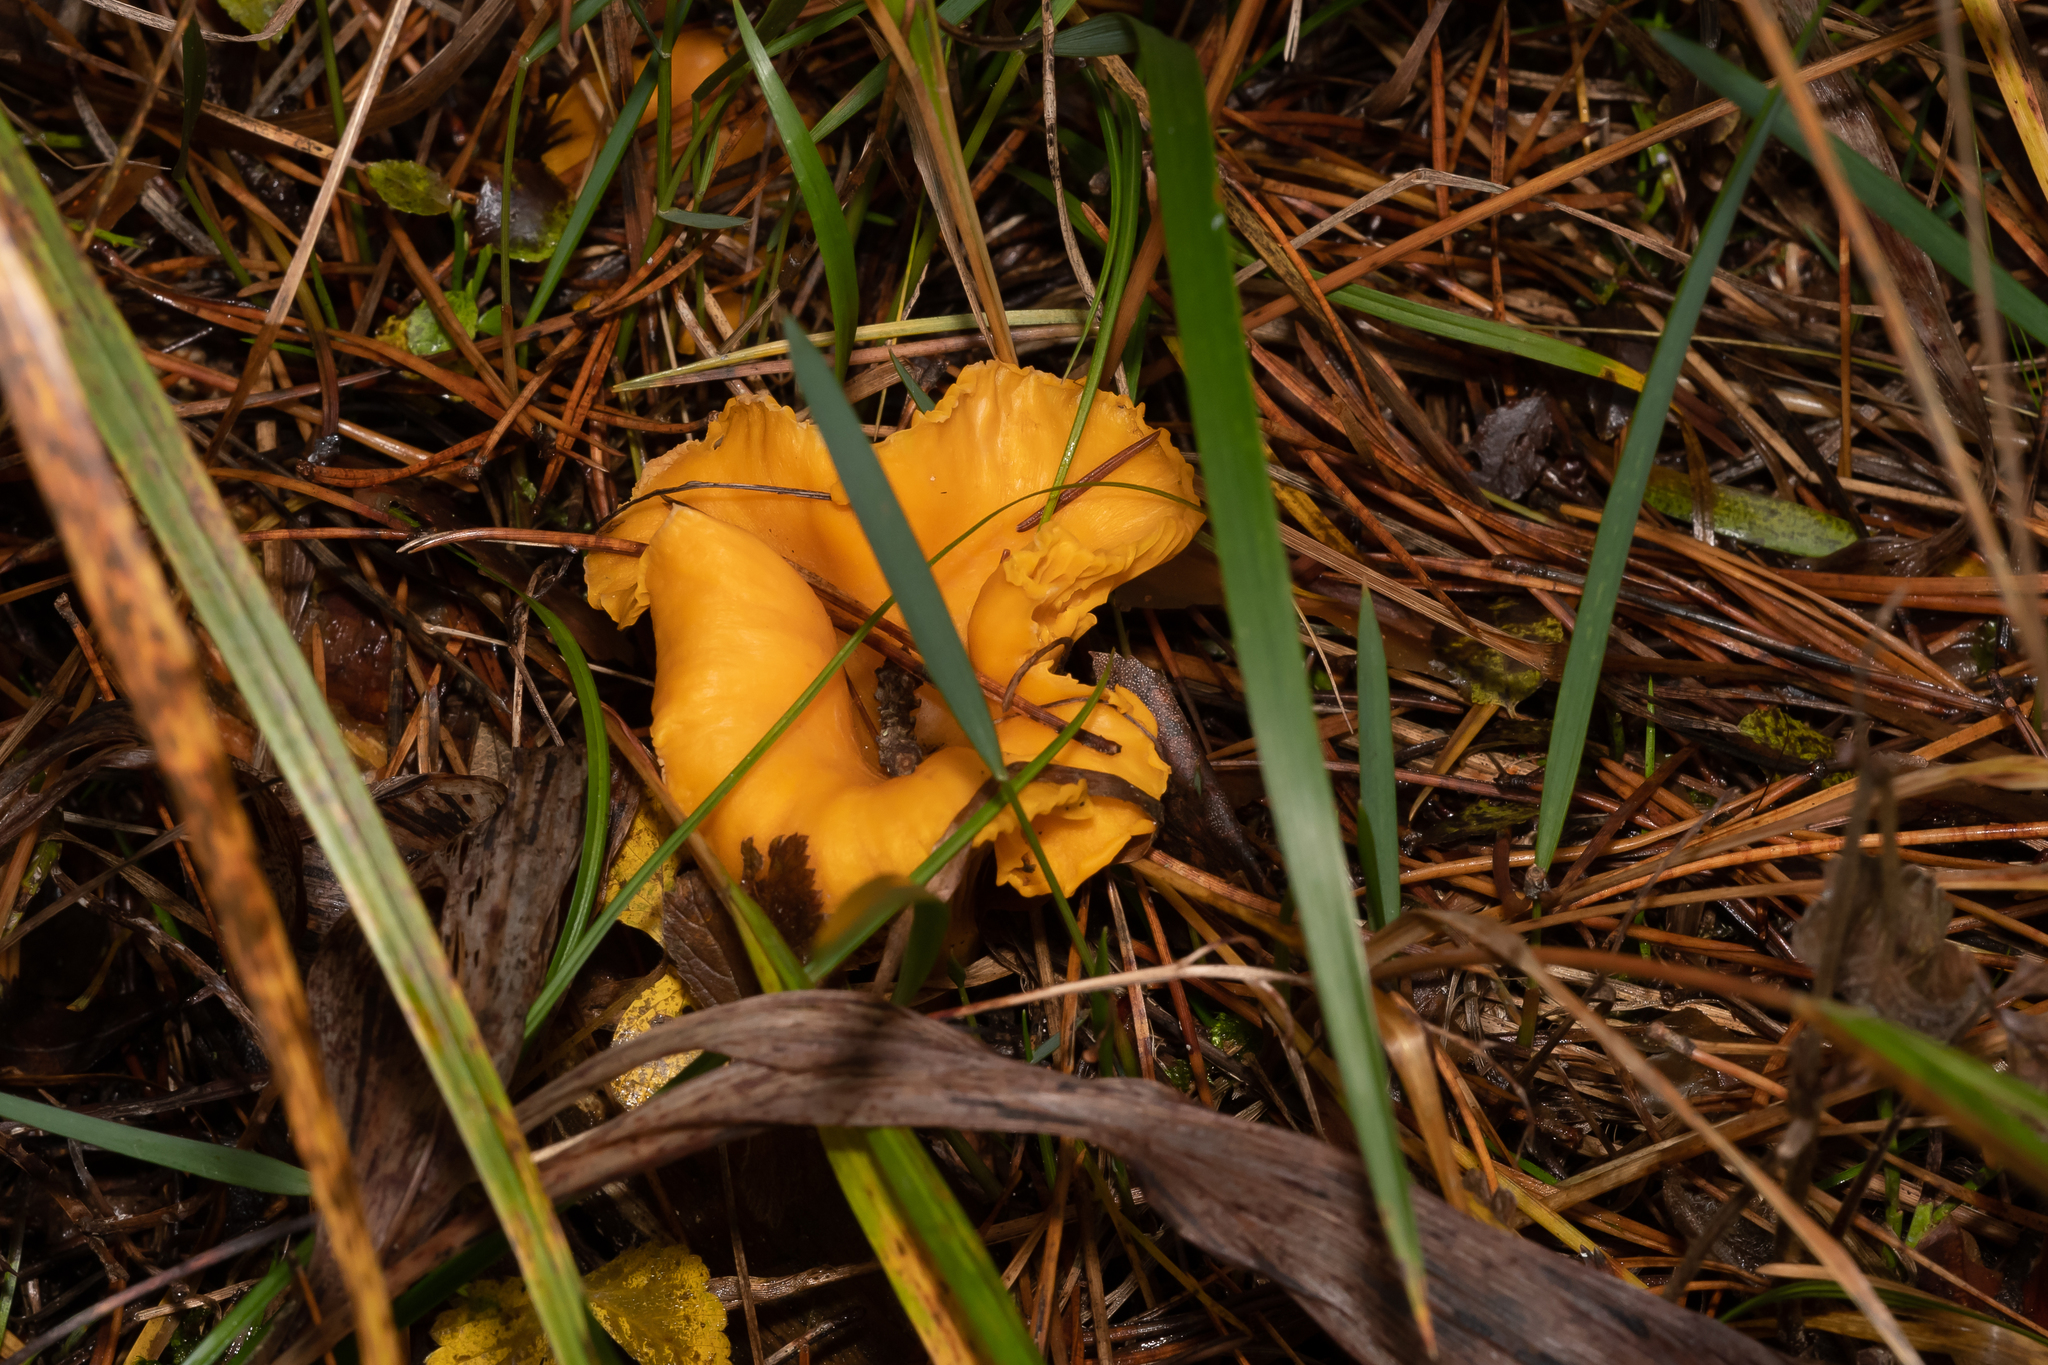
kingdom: Fungi
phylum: Basidiomycota
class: Agaricomycetes
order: Cantharellales
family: Hydnaceae
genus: Cantharellus
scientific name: Cantharellus cibarius
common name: Chanterelle
